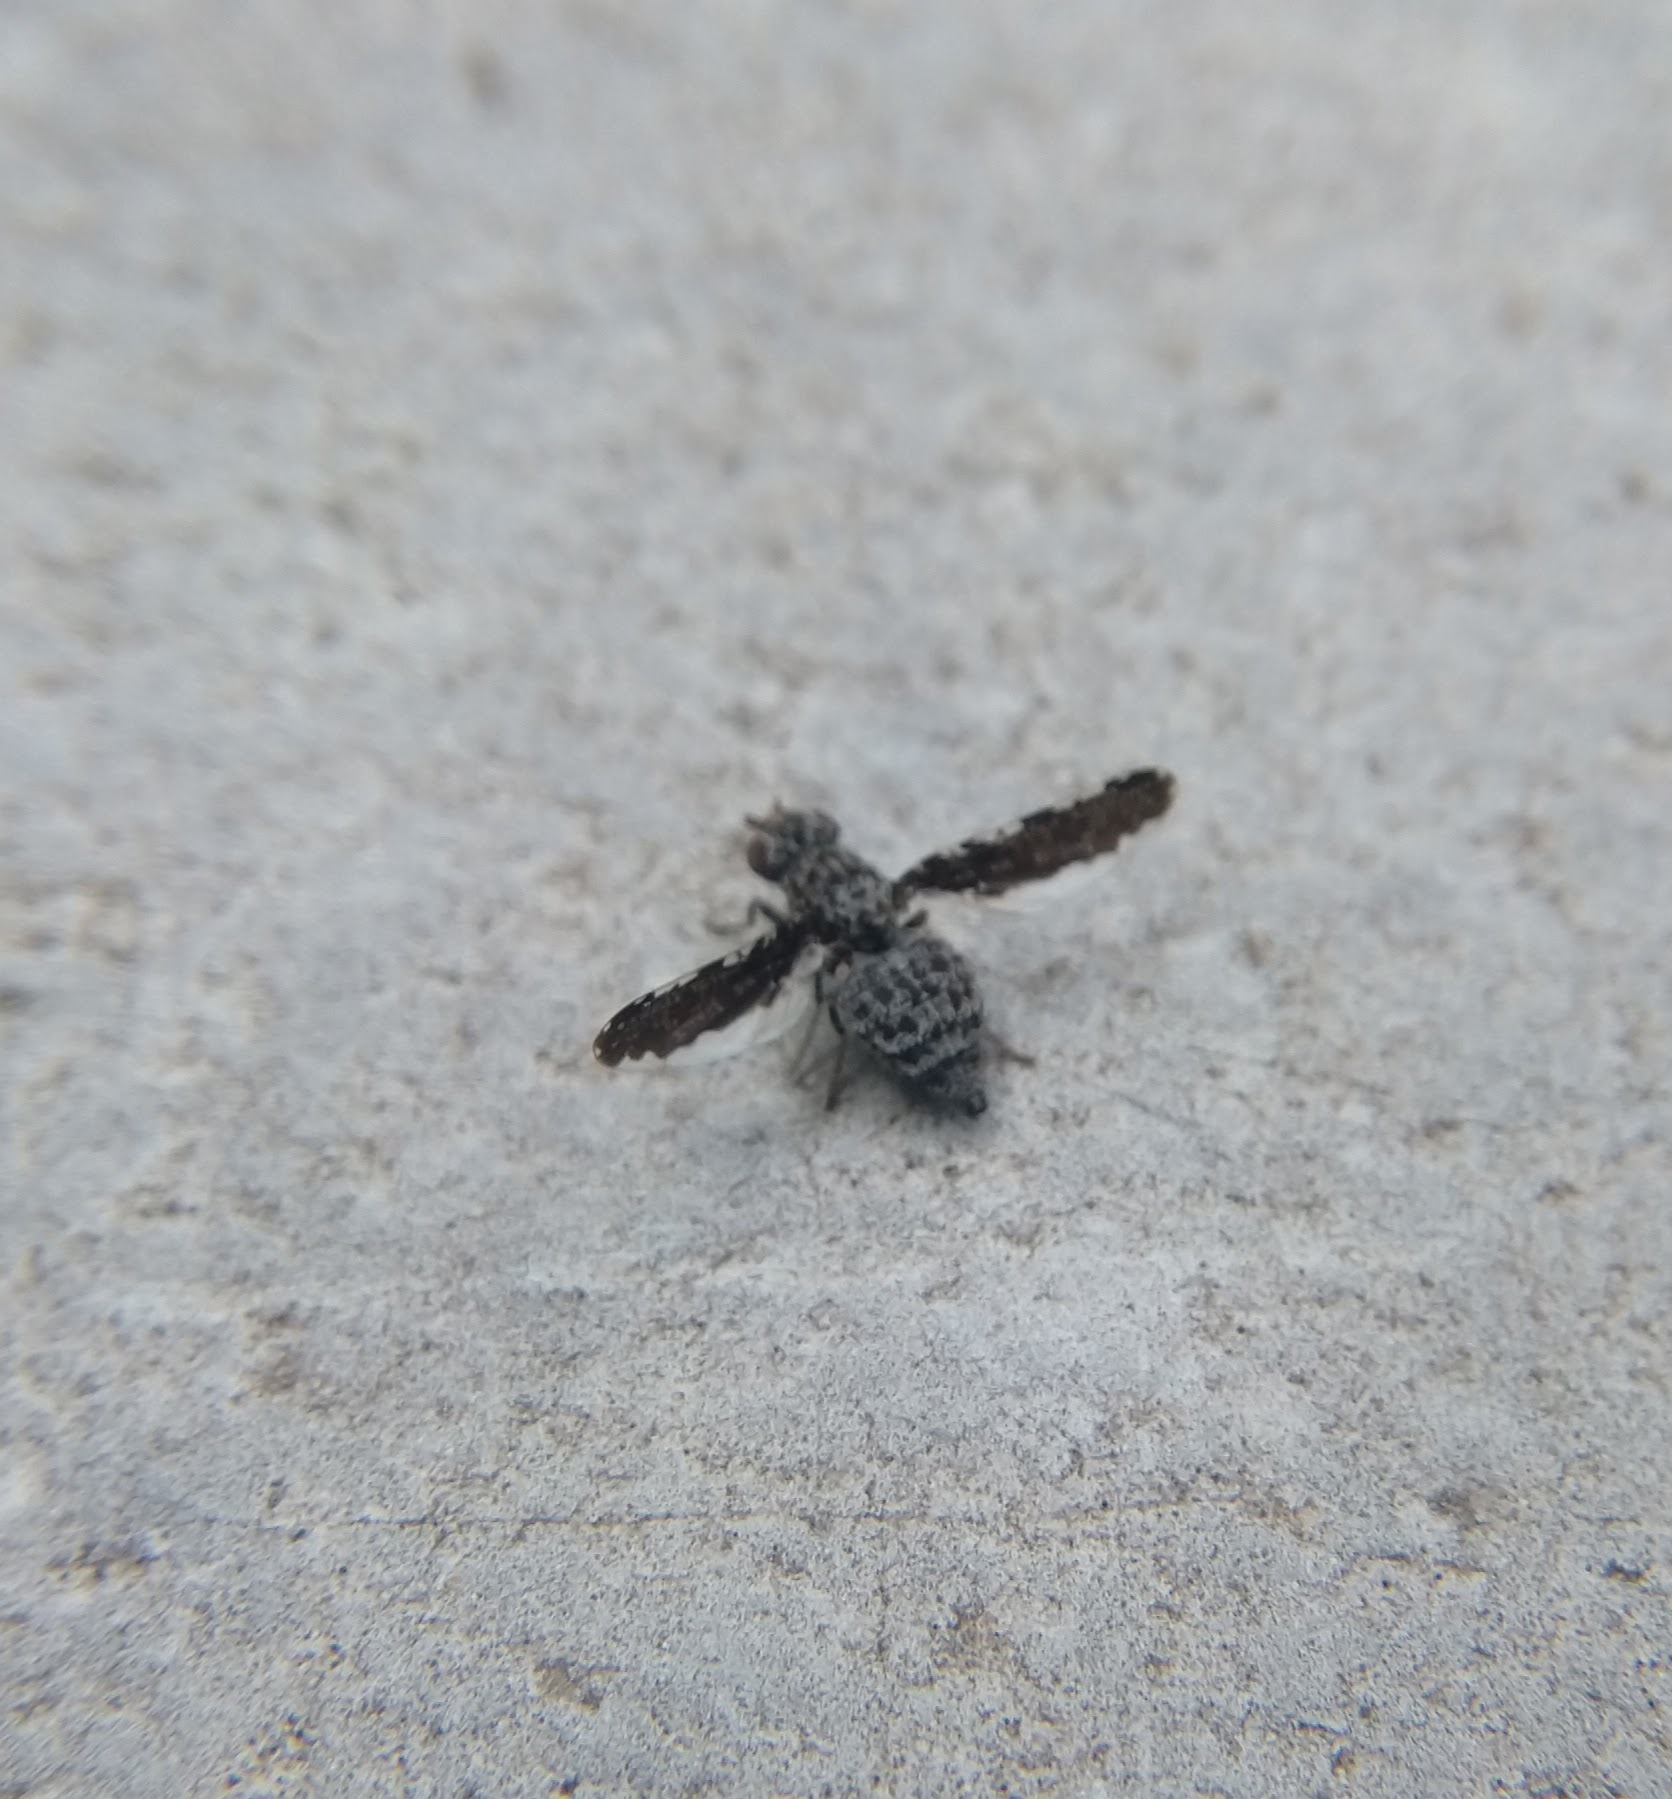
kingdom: Animalia
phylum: Arthropoda
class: Insecta
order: Diptera
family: Ulidiidae
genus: Callopistromyia
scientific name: Callopistromyia strigula
